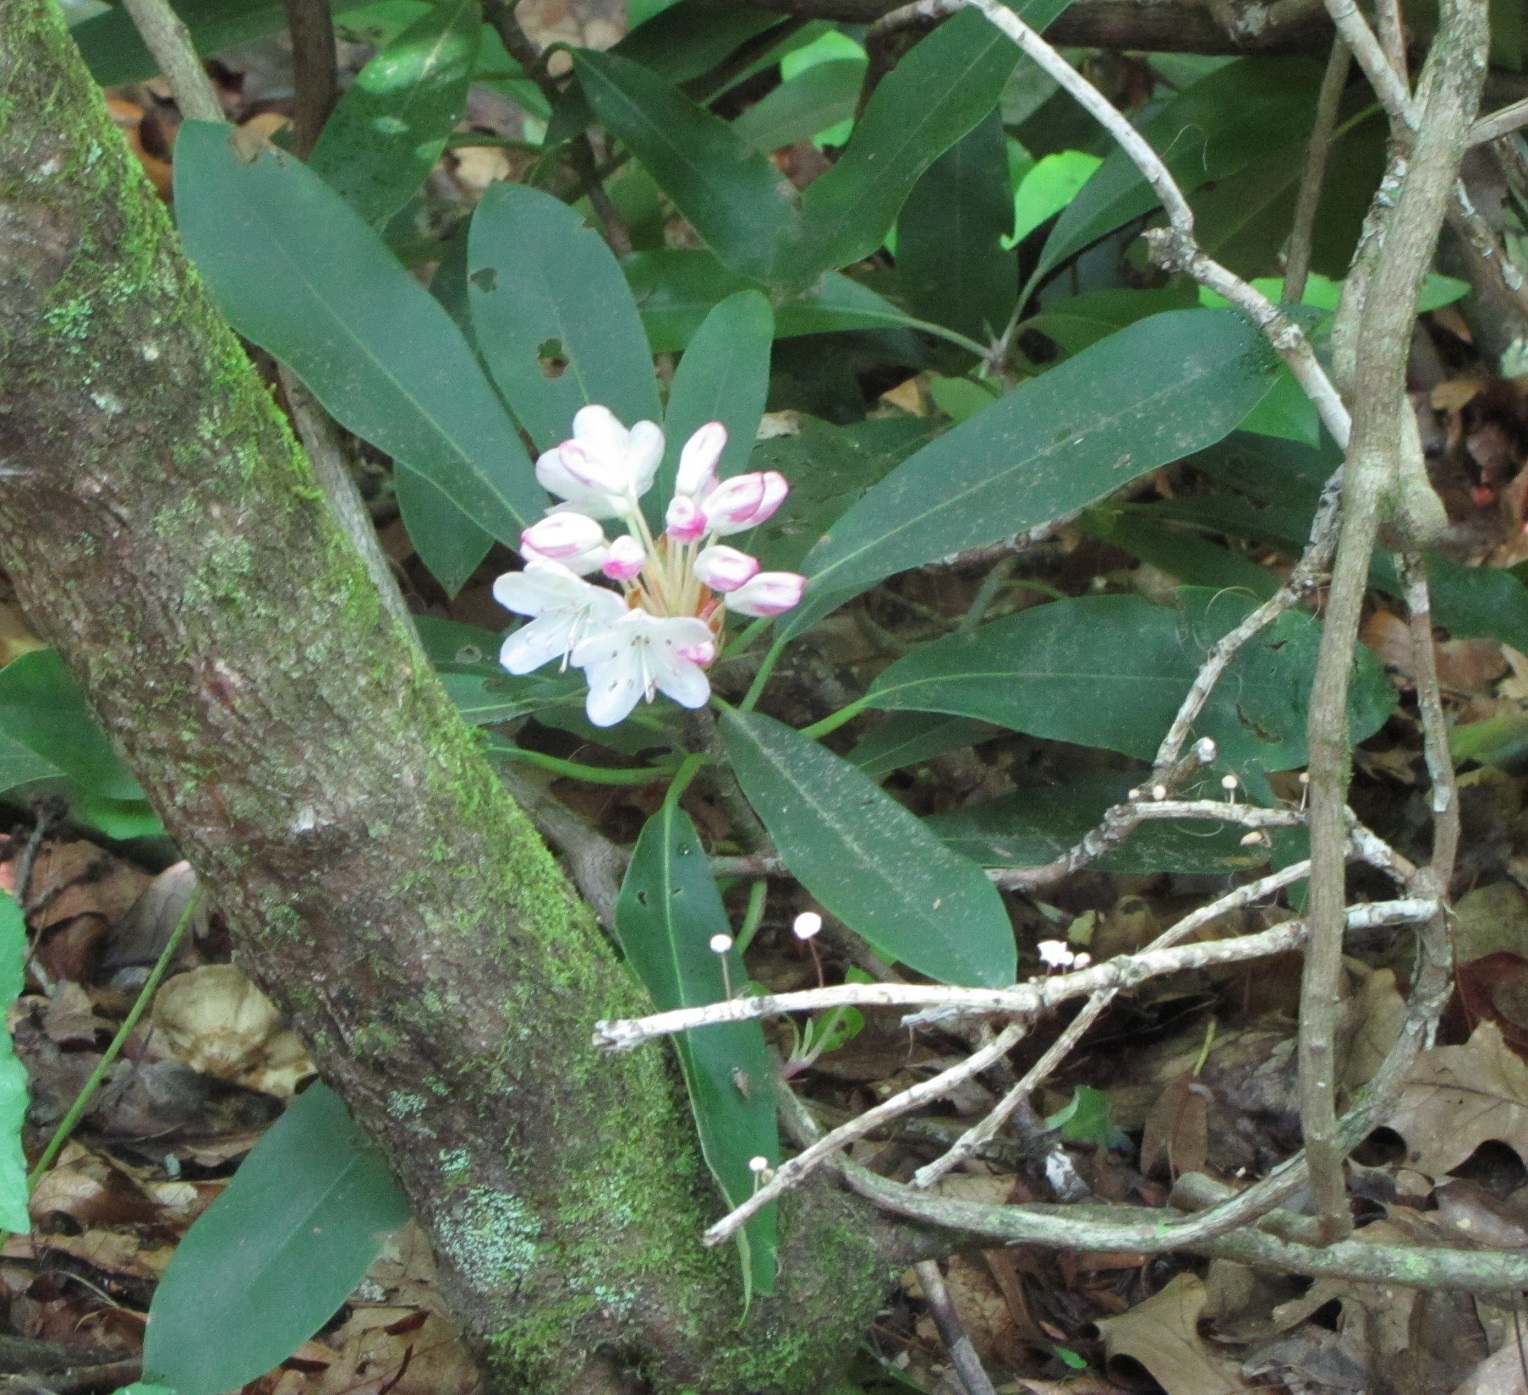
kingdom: Plantae
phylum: Tracheophyta
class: Magnoliopsida
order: Ericales
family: Ericaceae
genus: Rhododendron
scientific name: Rhododendron maximum
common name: Great rhododendron
